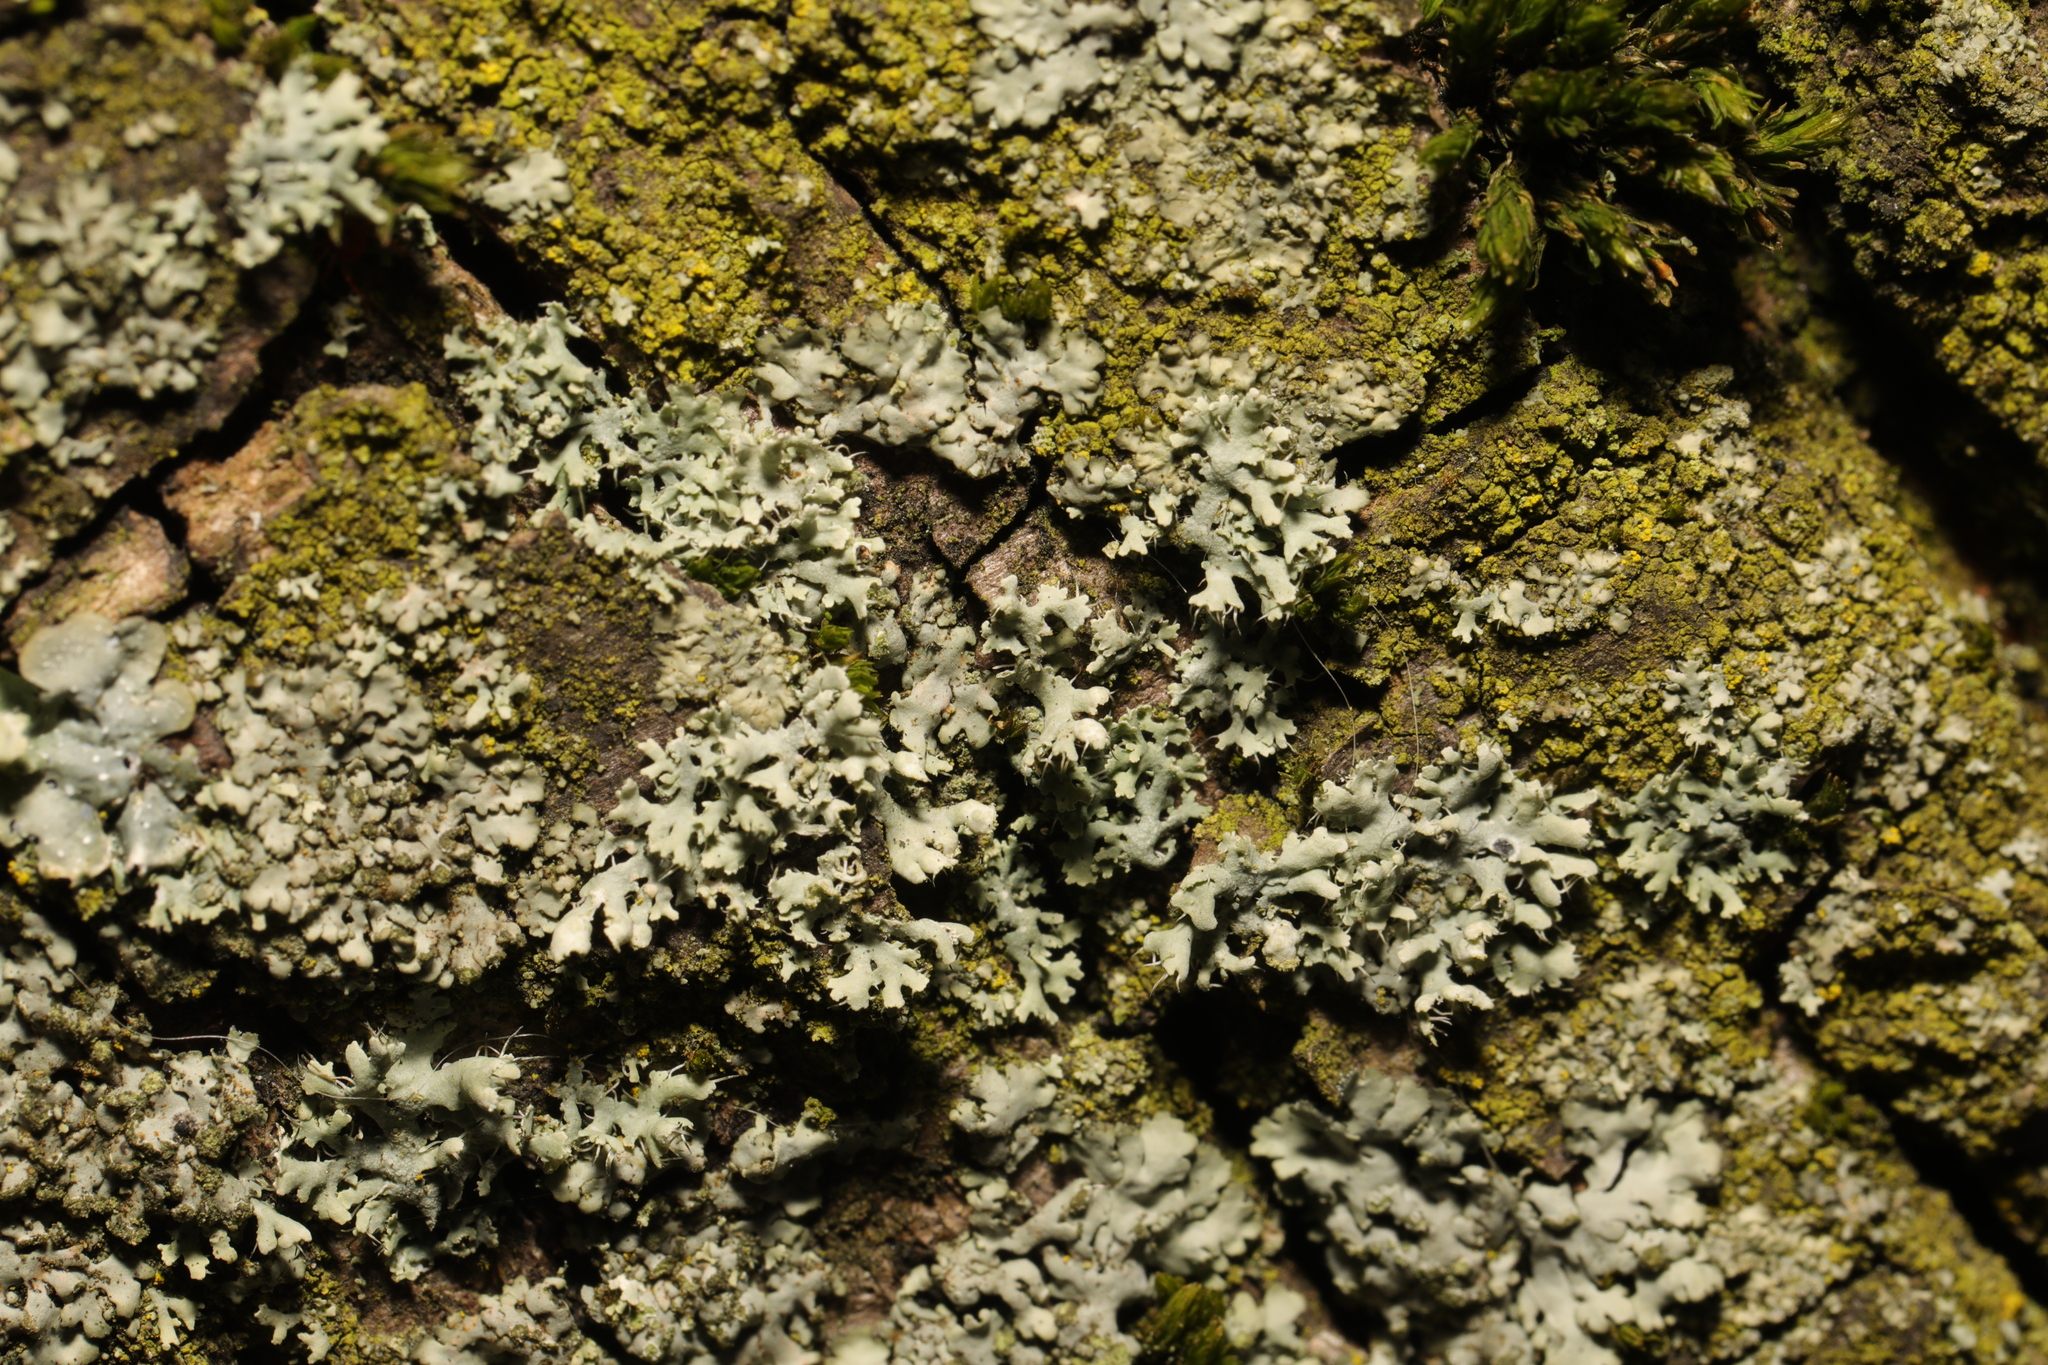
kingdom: Fungi
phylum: Ascomycota
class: Lecanoromycetes
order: Caliciales
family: Physciaceae
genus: Physcia
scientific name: Physcia adscendens
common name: Hooded rosette lichen
